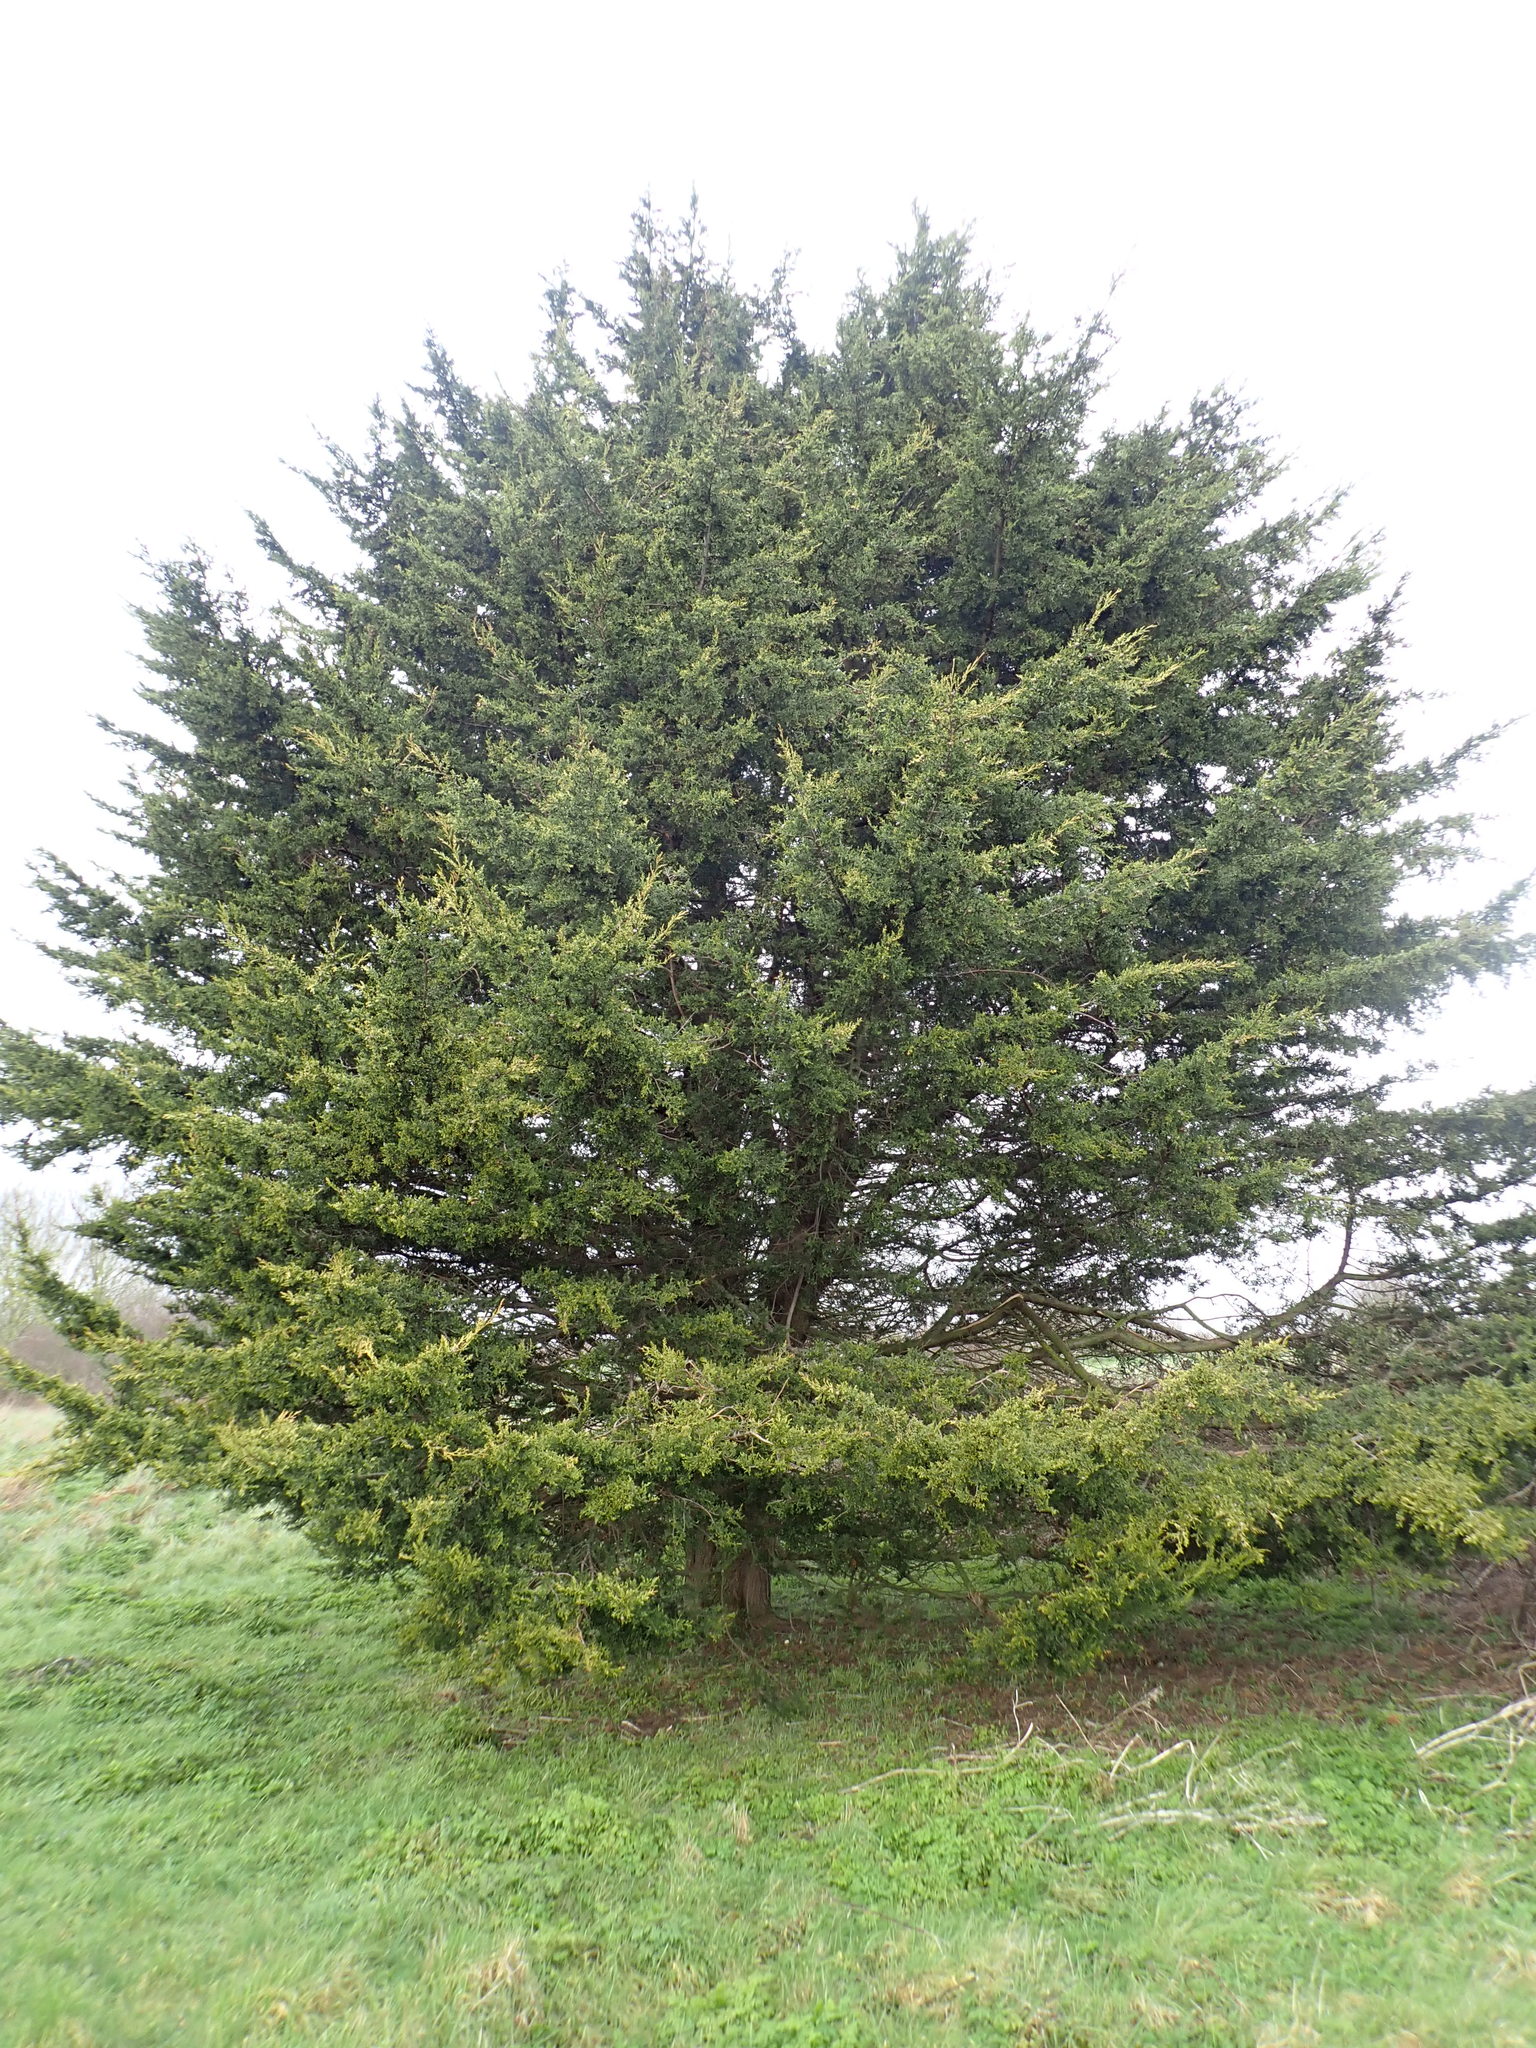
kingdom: Plantae
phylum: Tracheophyta
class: Pinopsida
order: Pinales
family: Cupressaceae
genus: Cupressus
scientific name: Cupressus macrocarpa
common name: Monterey cypress
